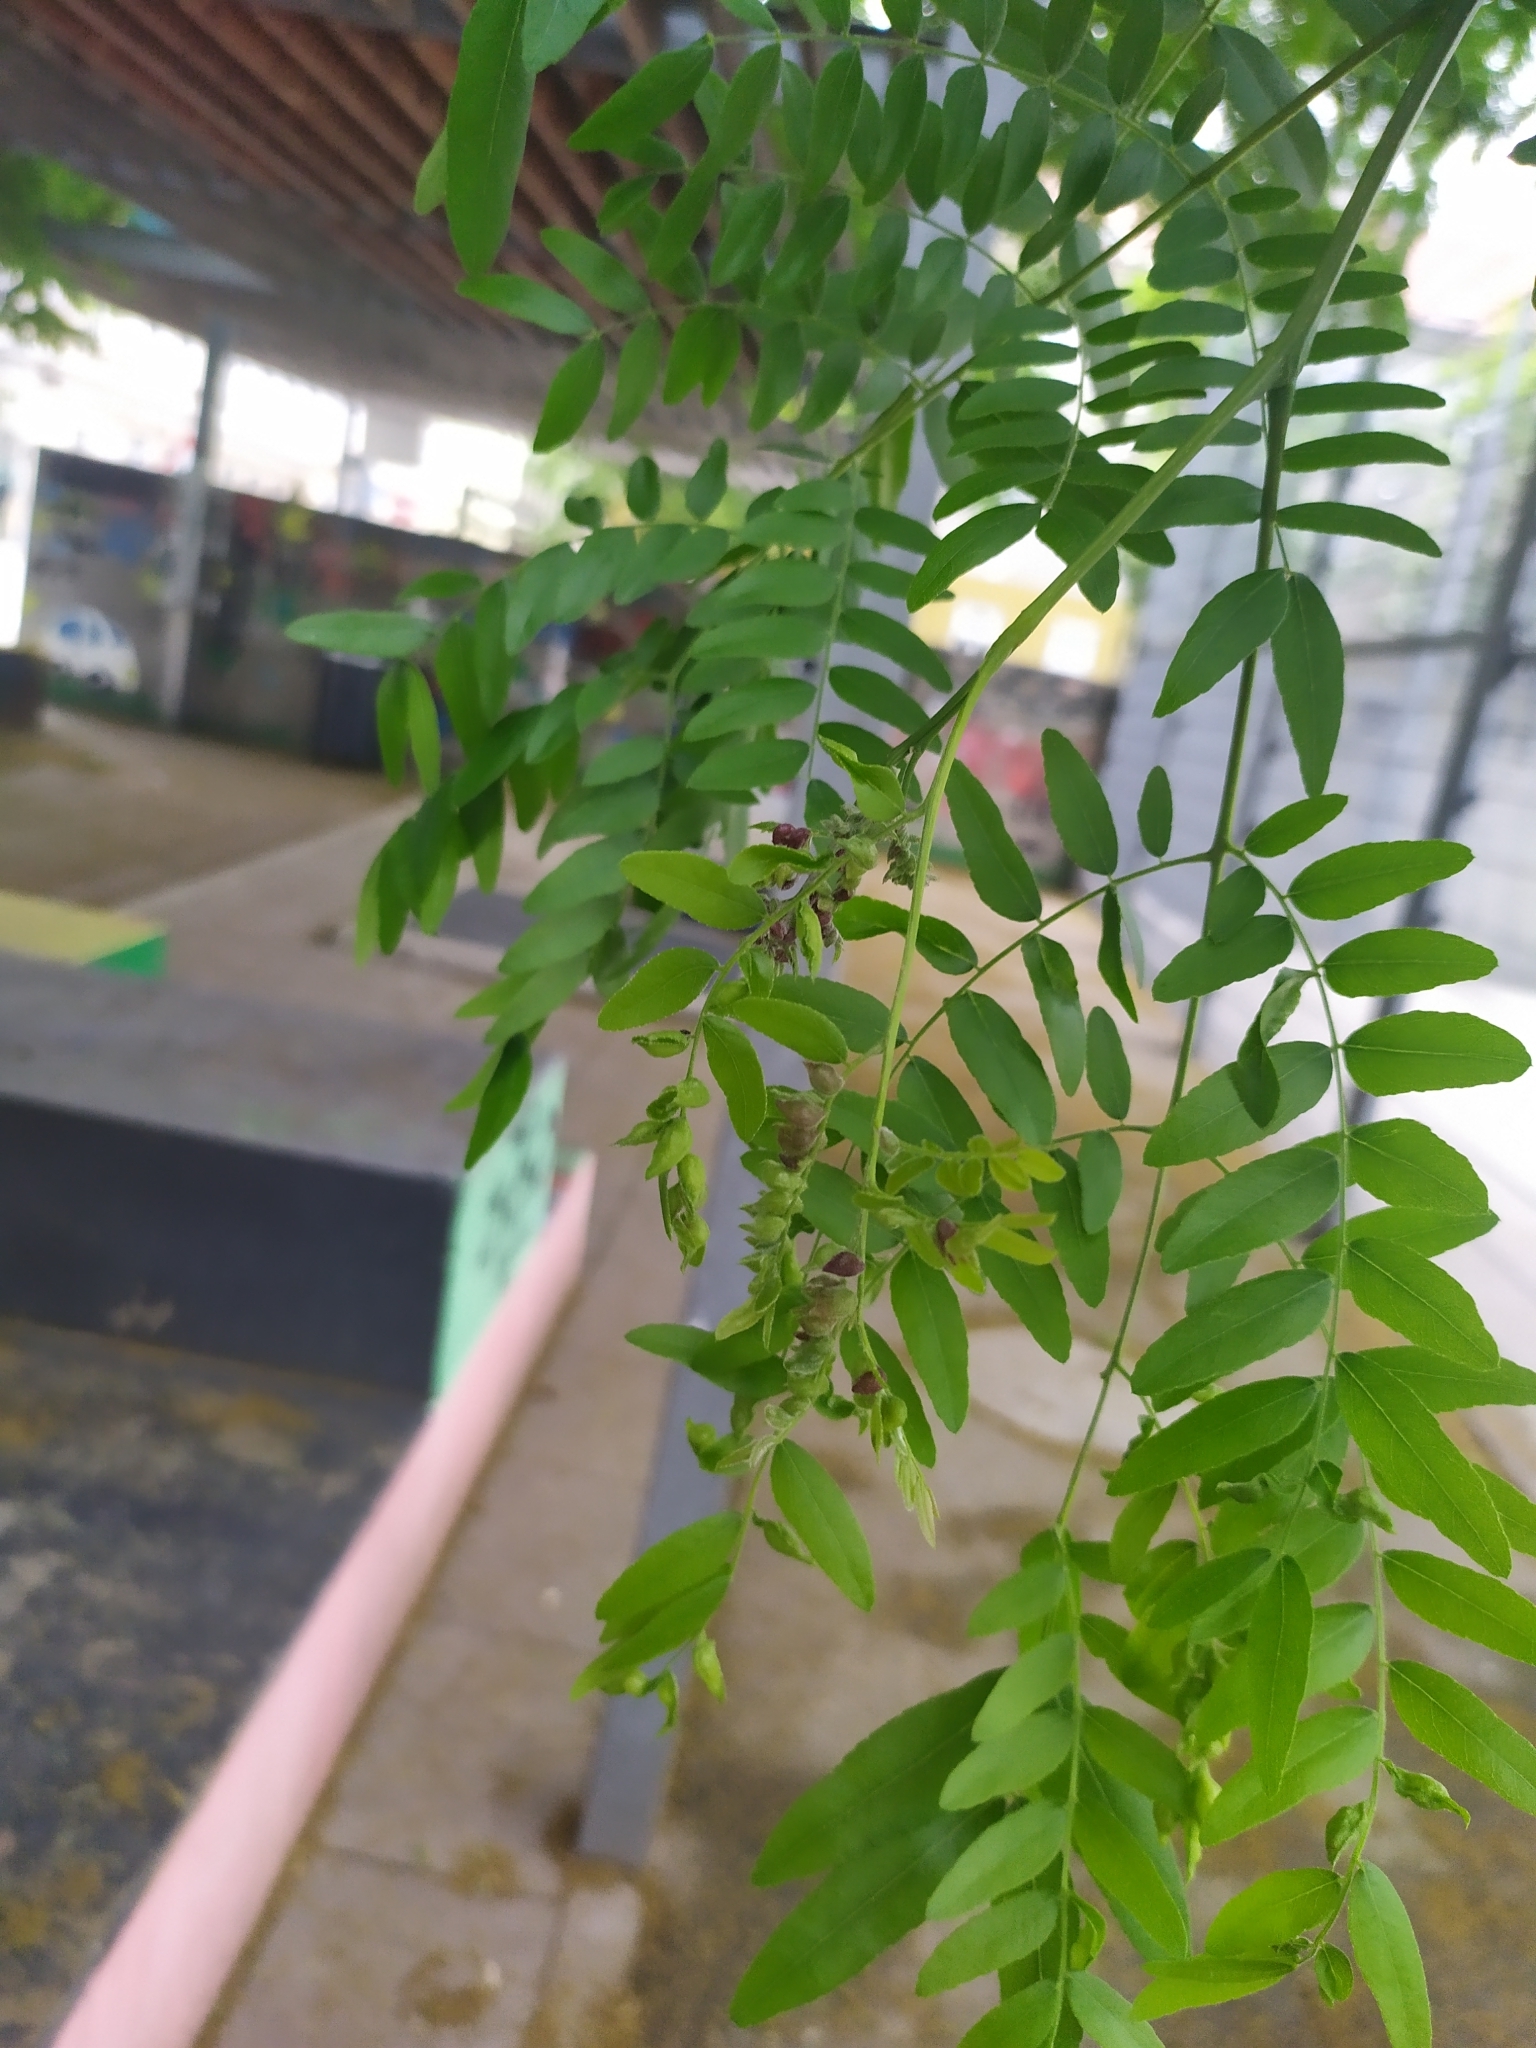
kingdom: Animalia
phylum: Arthropoda
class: Insecta
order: Diptera
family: Cecidomyiidae
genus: Dasineura
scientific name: Dasineura gleditchiae
